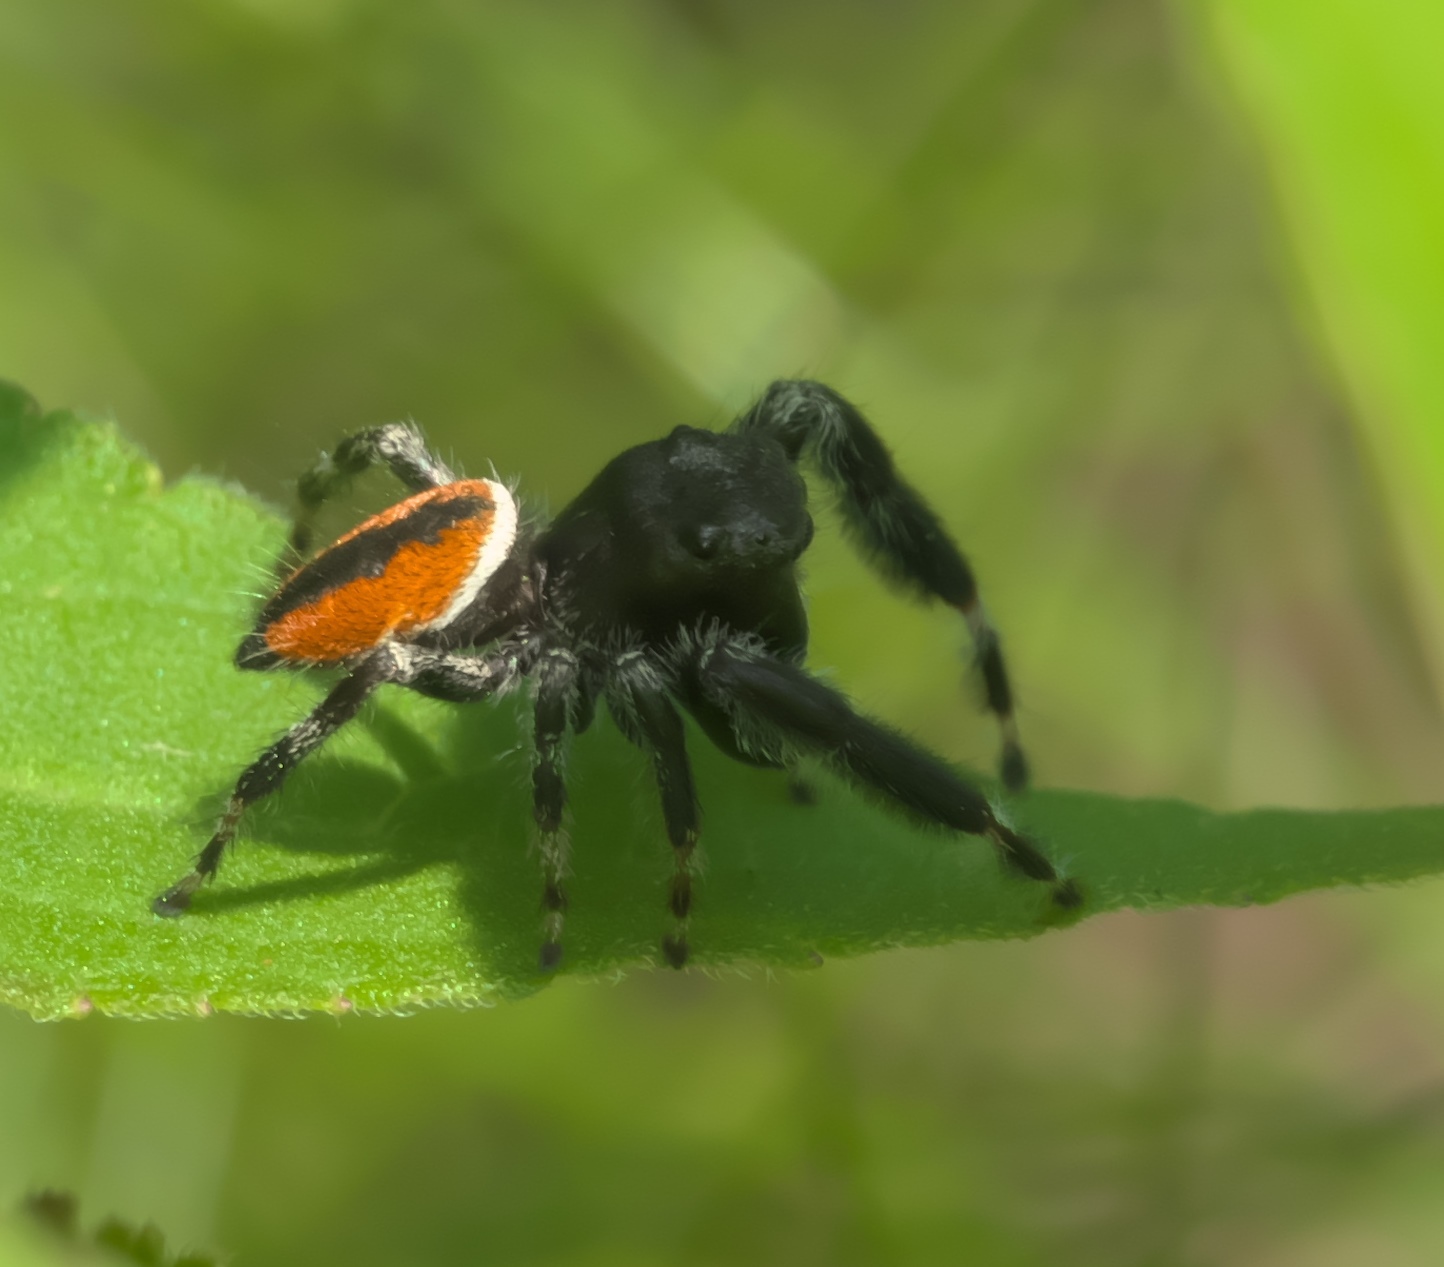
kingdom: Animalia
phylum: Arthropoda
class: Arachnida
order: Araneae
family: Salticidae
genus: Phidippus
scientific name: Phidippus clarus
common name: Brilliant jumping spider
